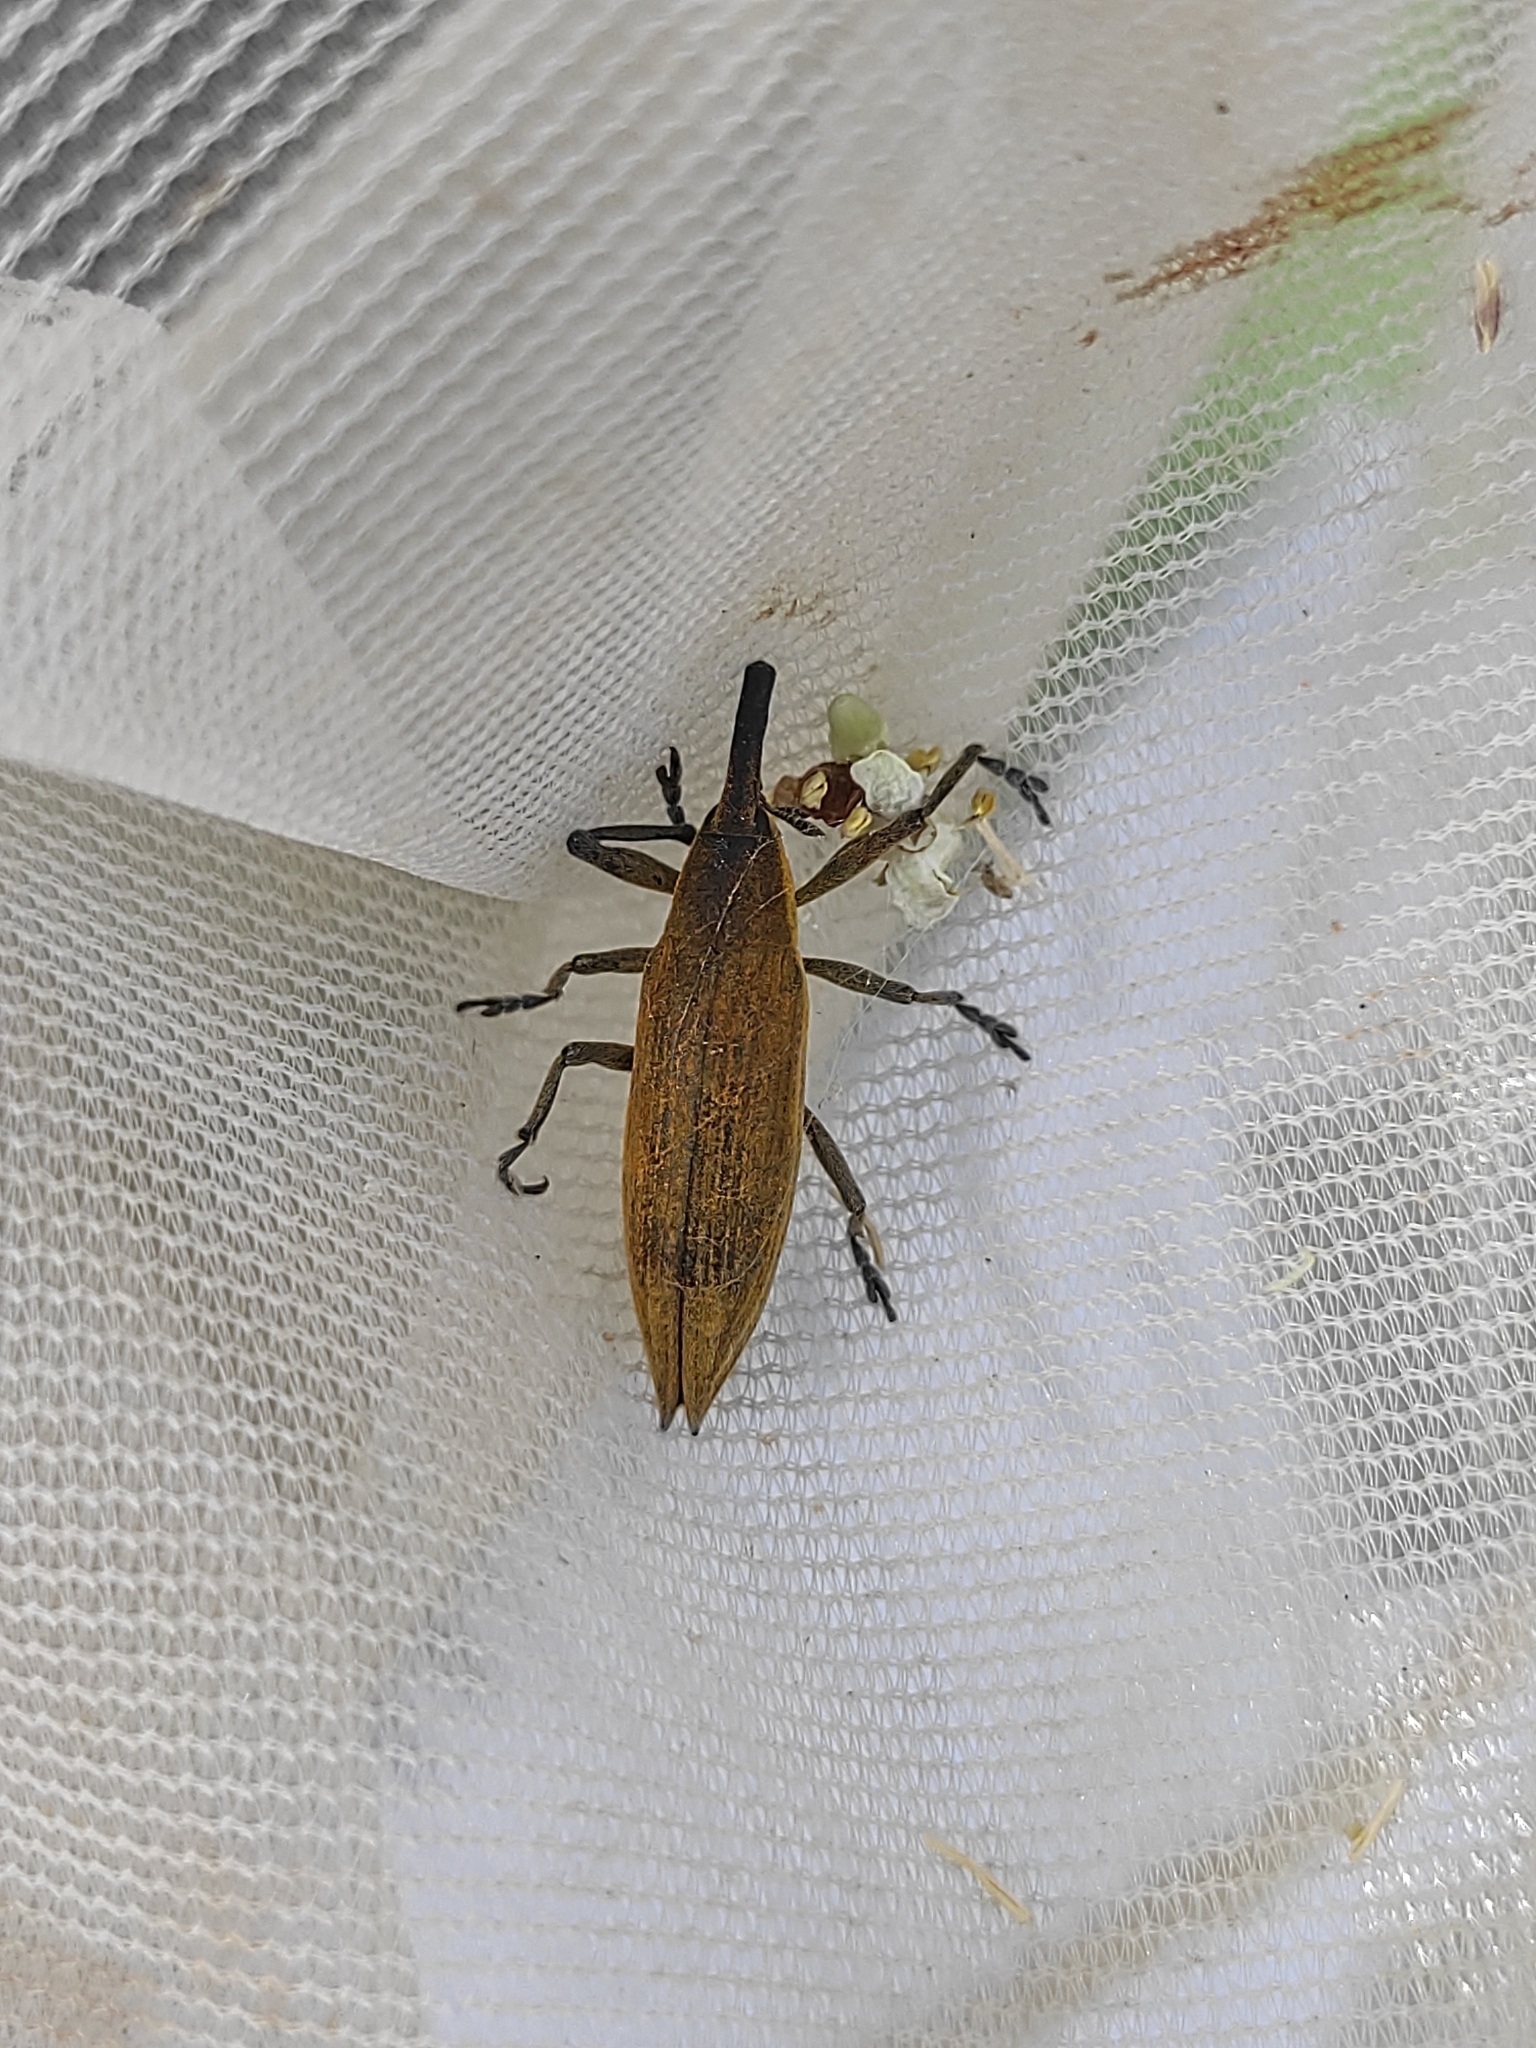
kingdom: Animalia
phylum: Arthropoda
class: Insecta
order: Coleoptera
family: Curculionidae
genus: Lixus
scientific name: Lixus iridis
